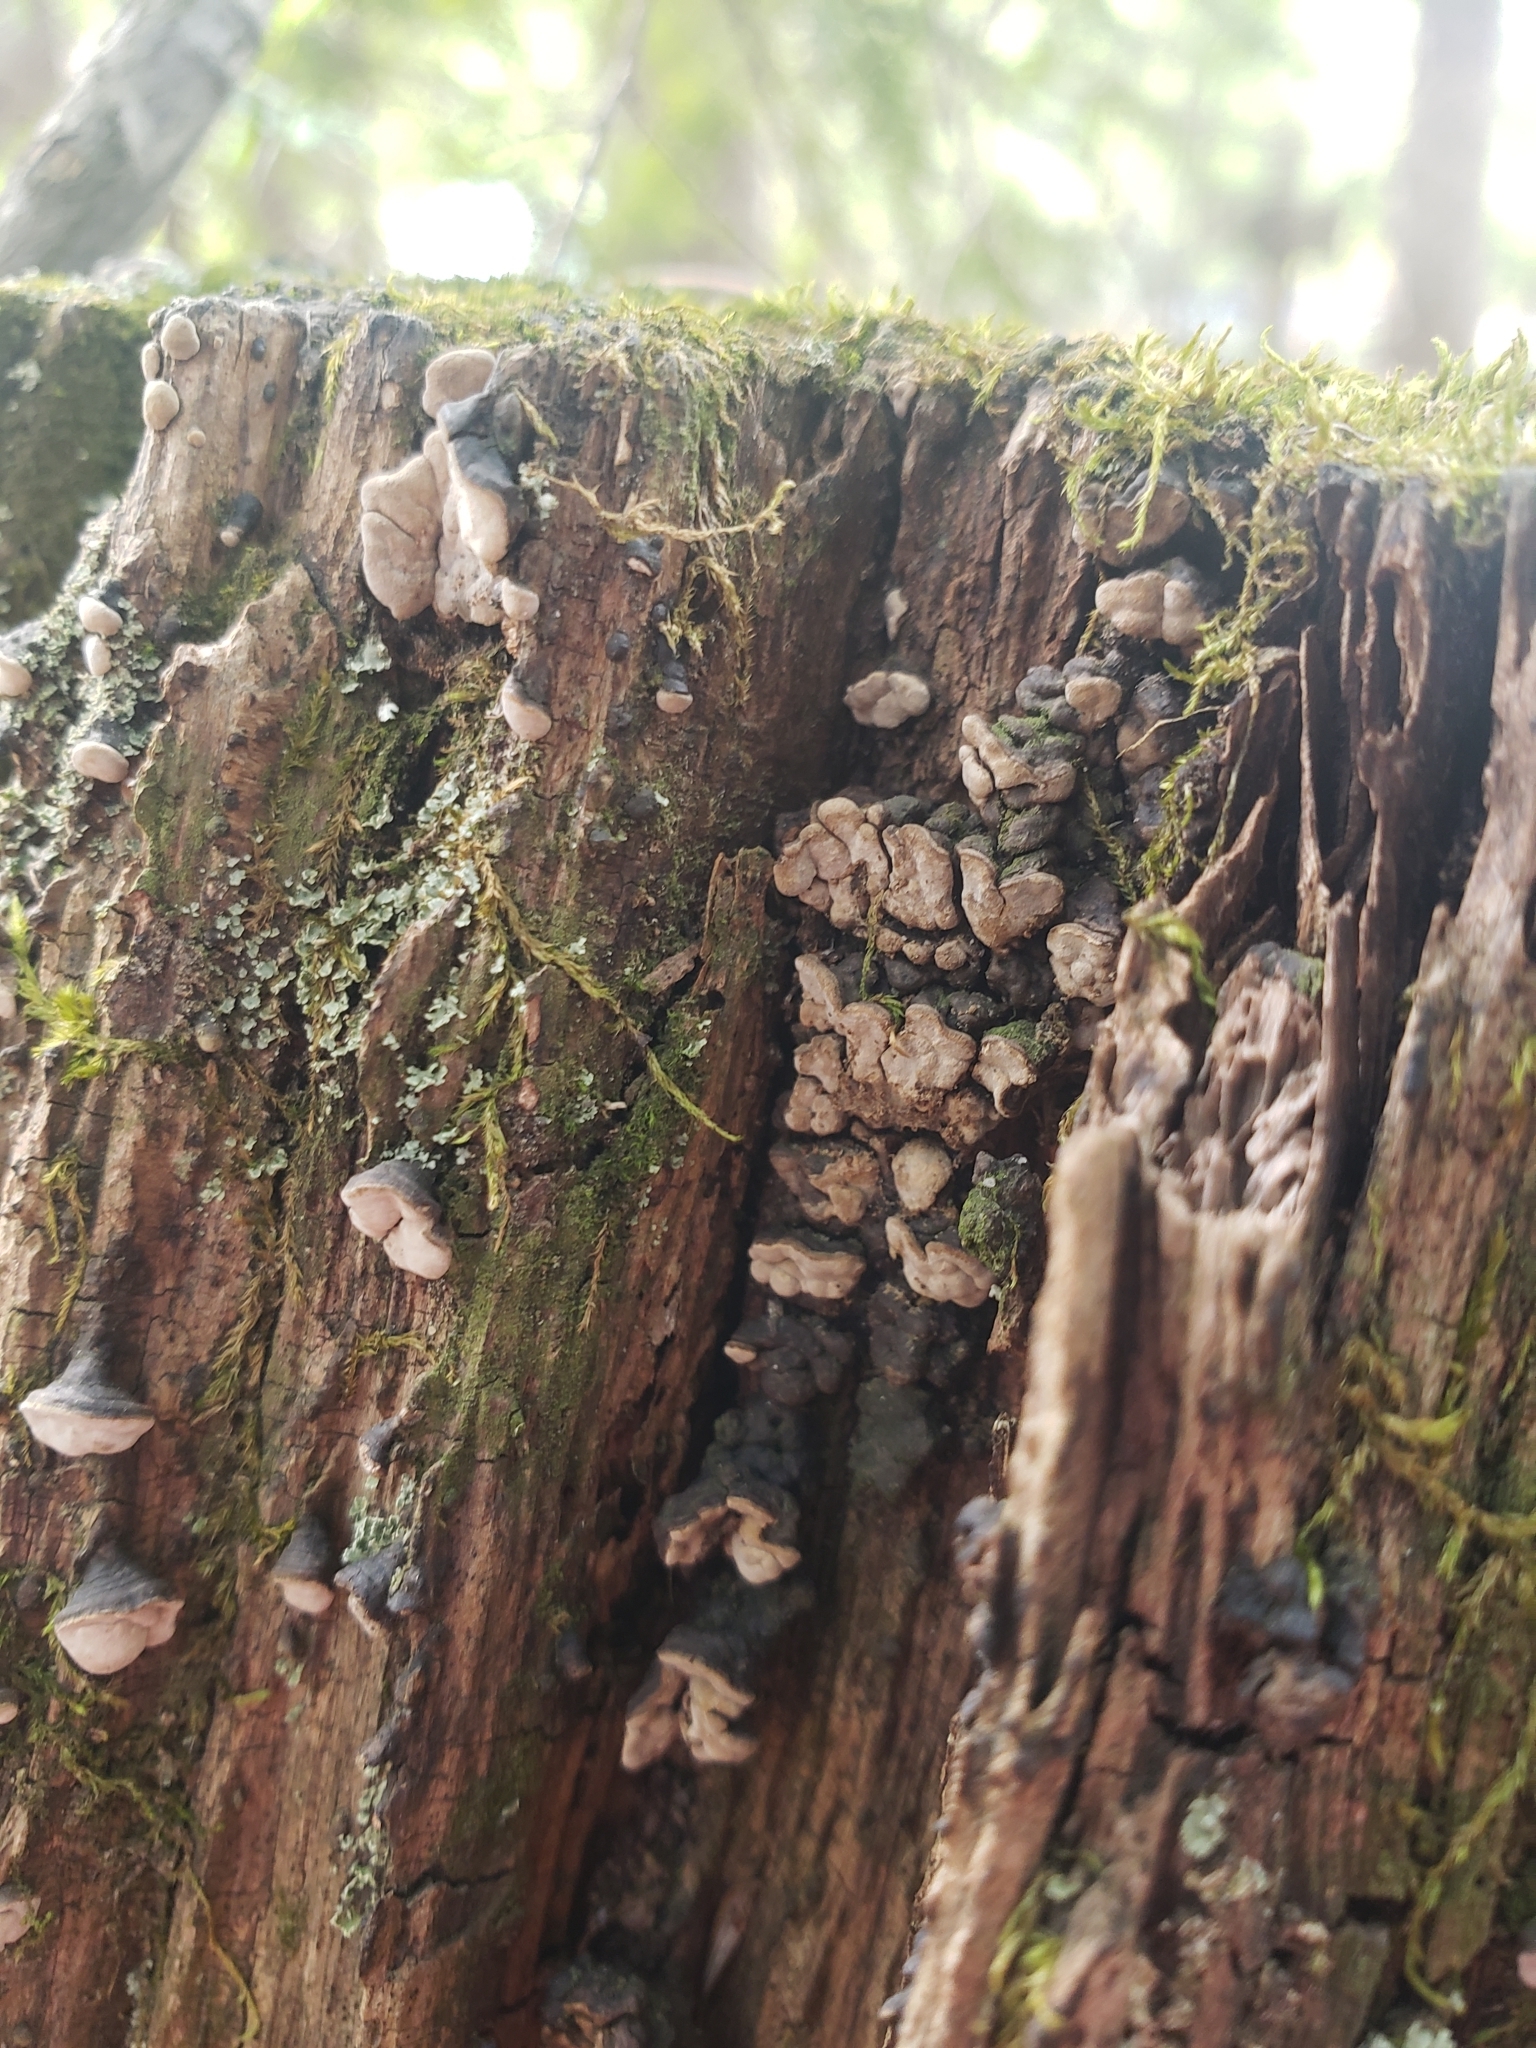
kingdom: Fungi
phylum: Basidiomycota
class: Agaricomycetes
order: Russulales
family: Stereaceae
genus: Xylobolus
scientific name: Xylobolus frustulatus
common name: Ceramic parchment
